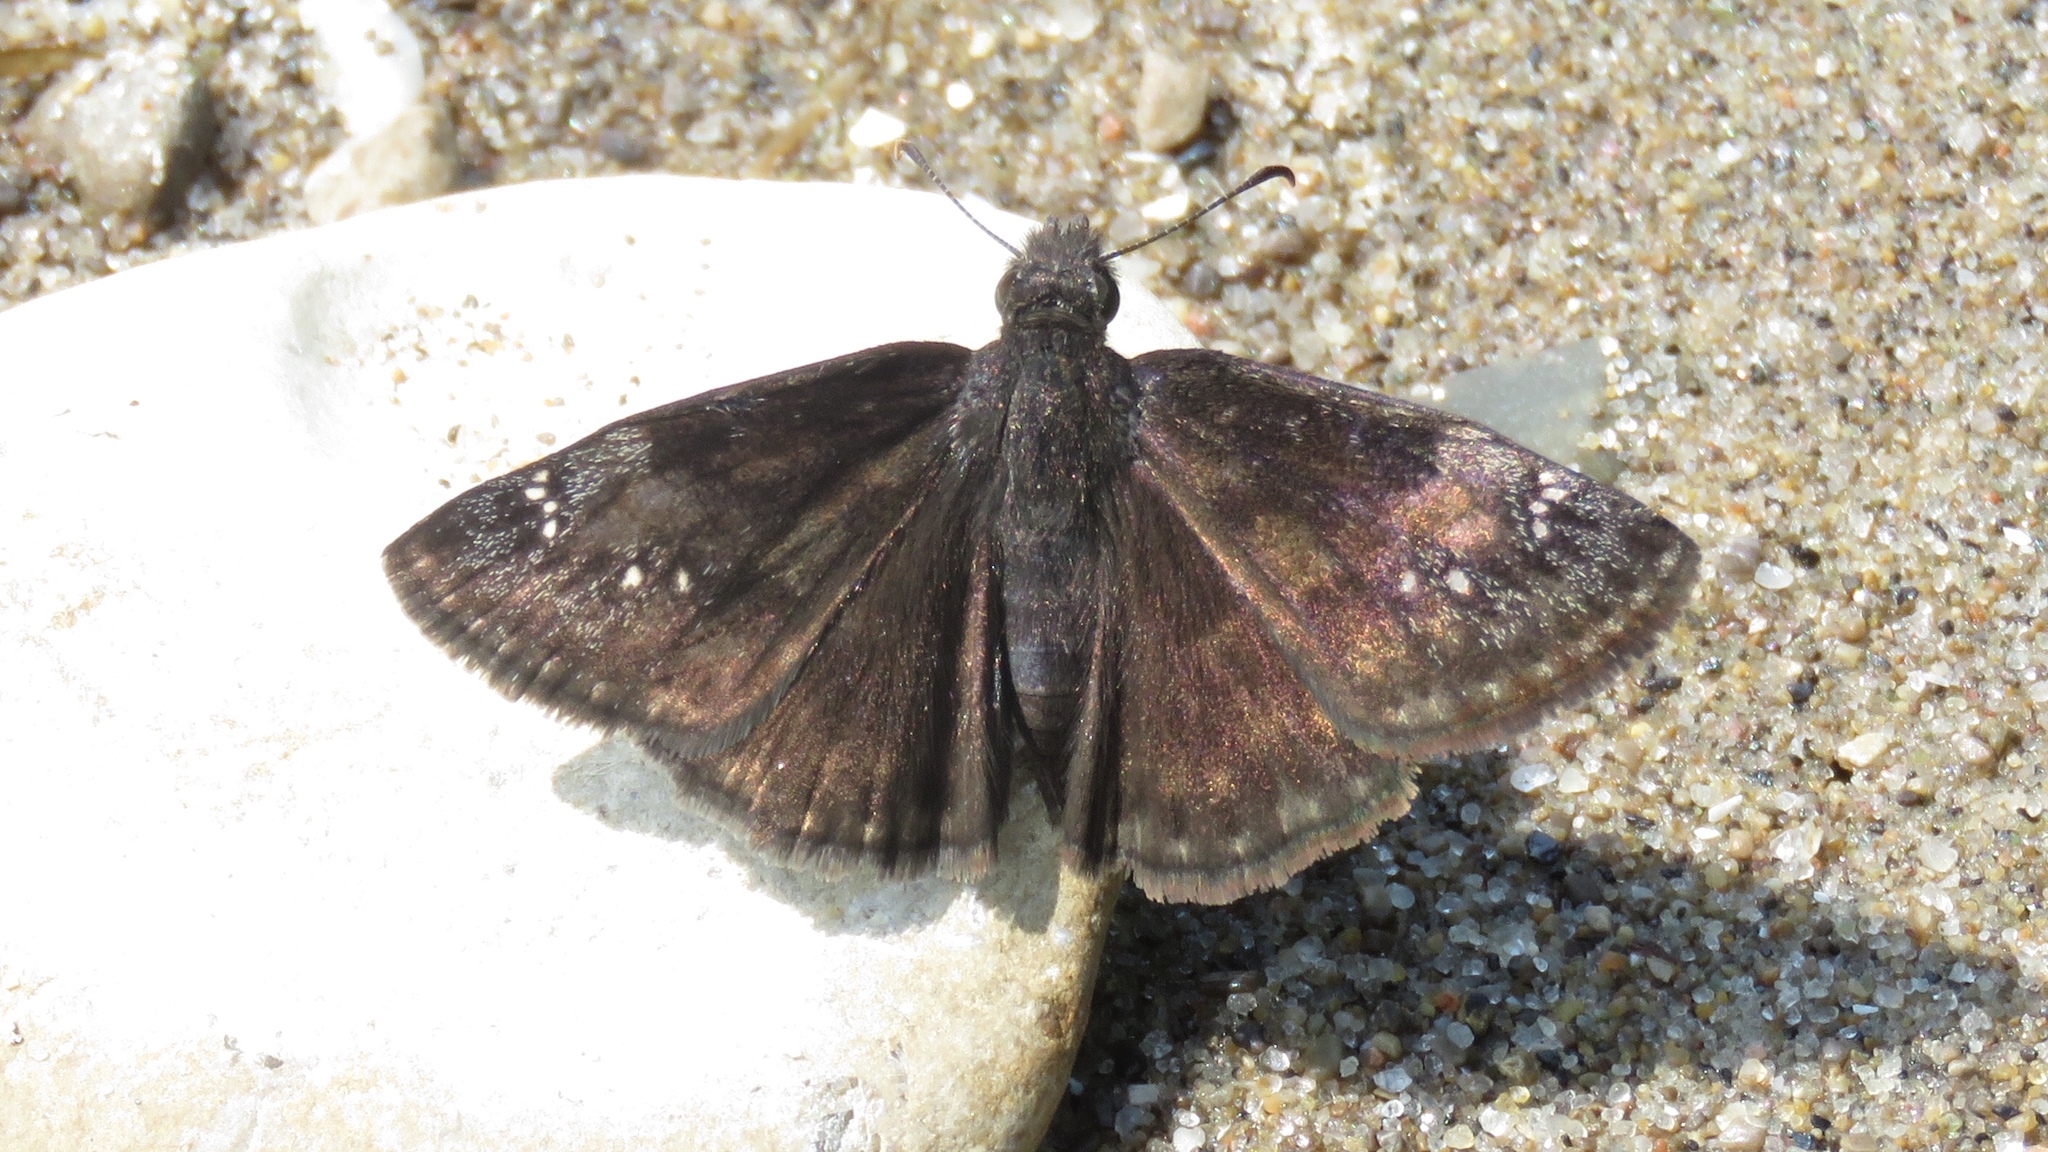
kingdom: Animalia
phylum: Arthropoda
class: Insecta
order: Lepidoptera
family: Hesperiidae
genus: Erynnis
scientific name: Erynnis baptisiae
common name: Wild indigo duskywing
